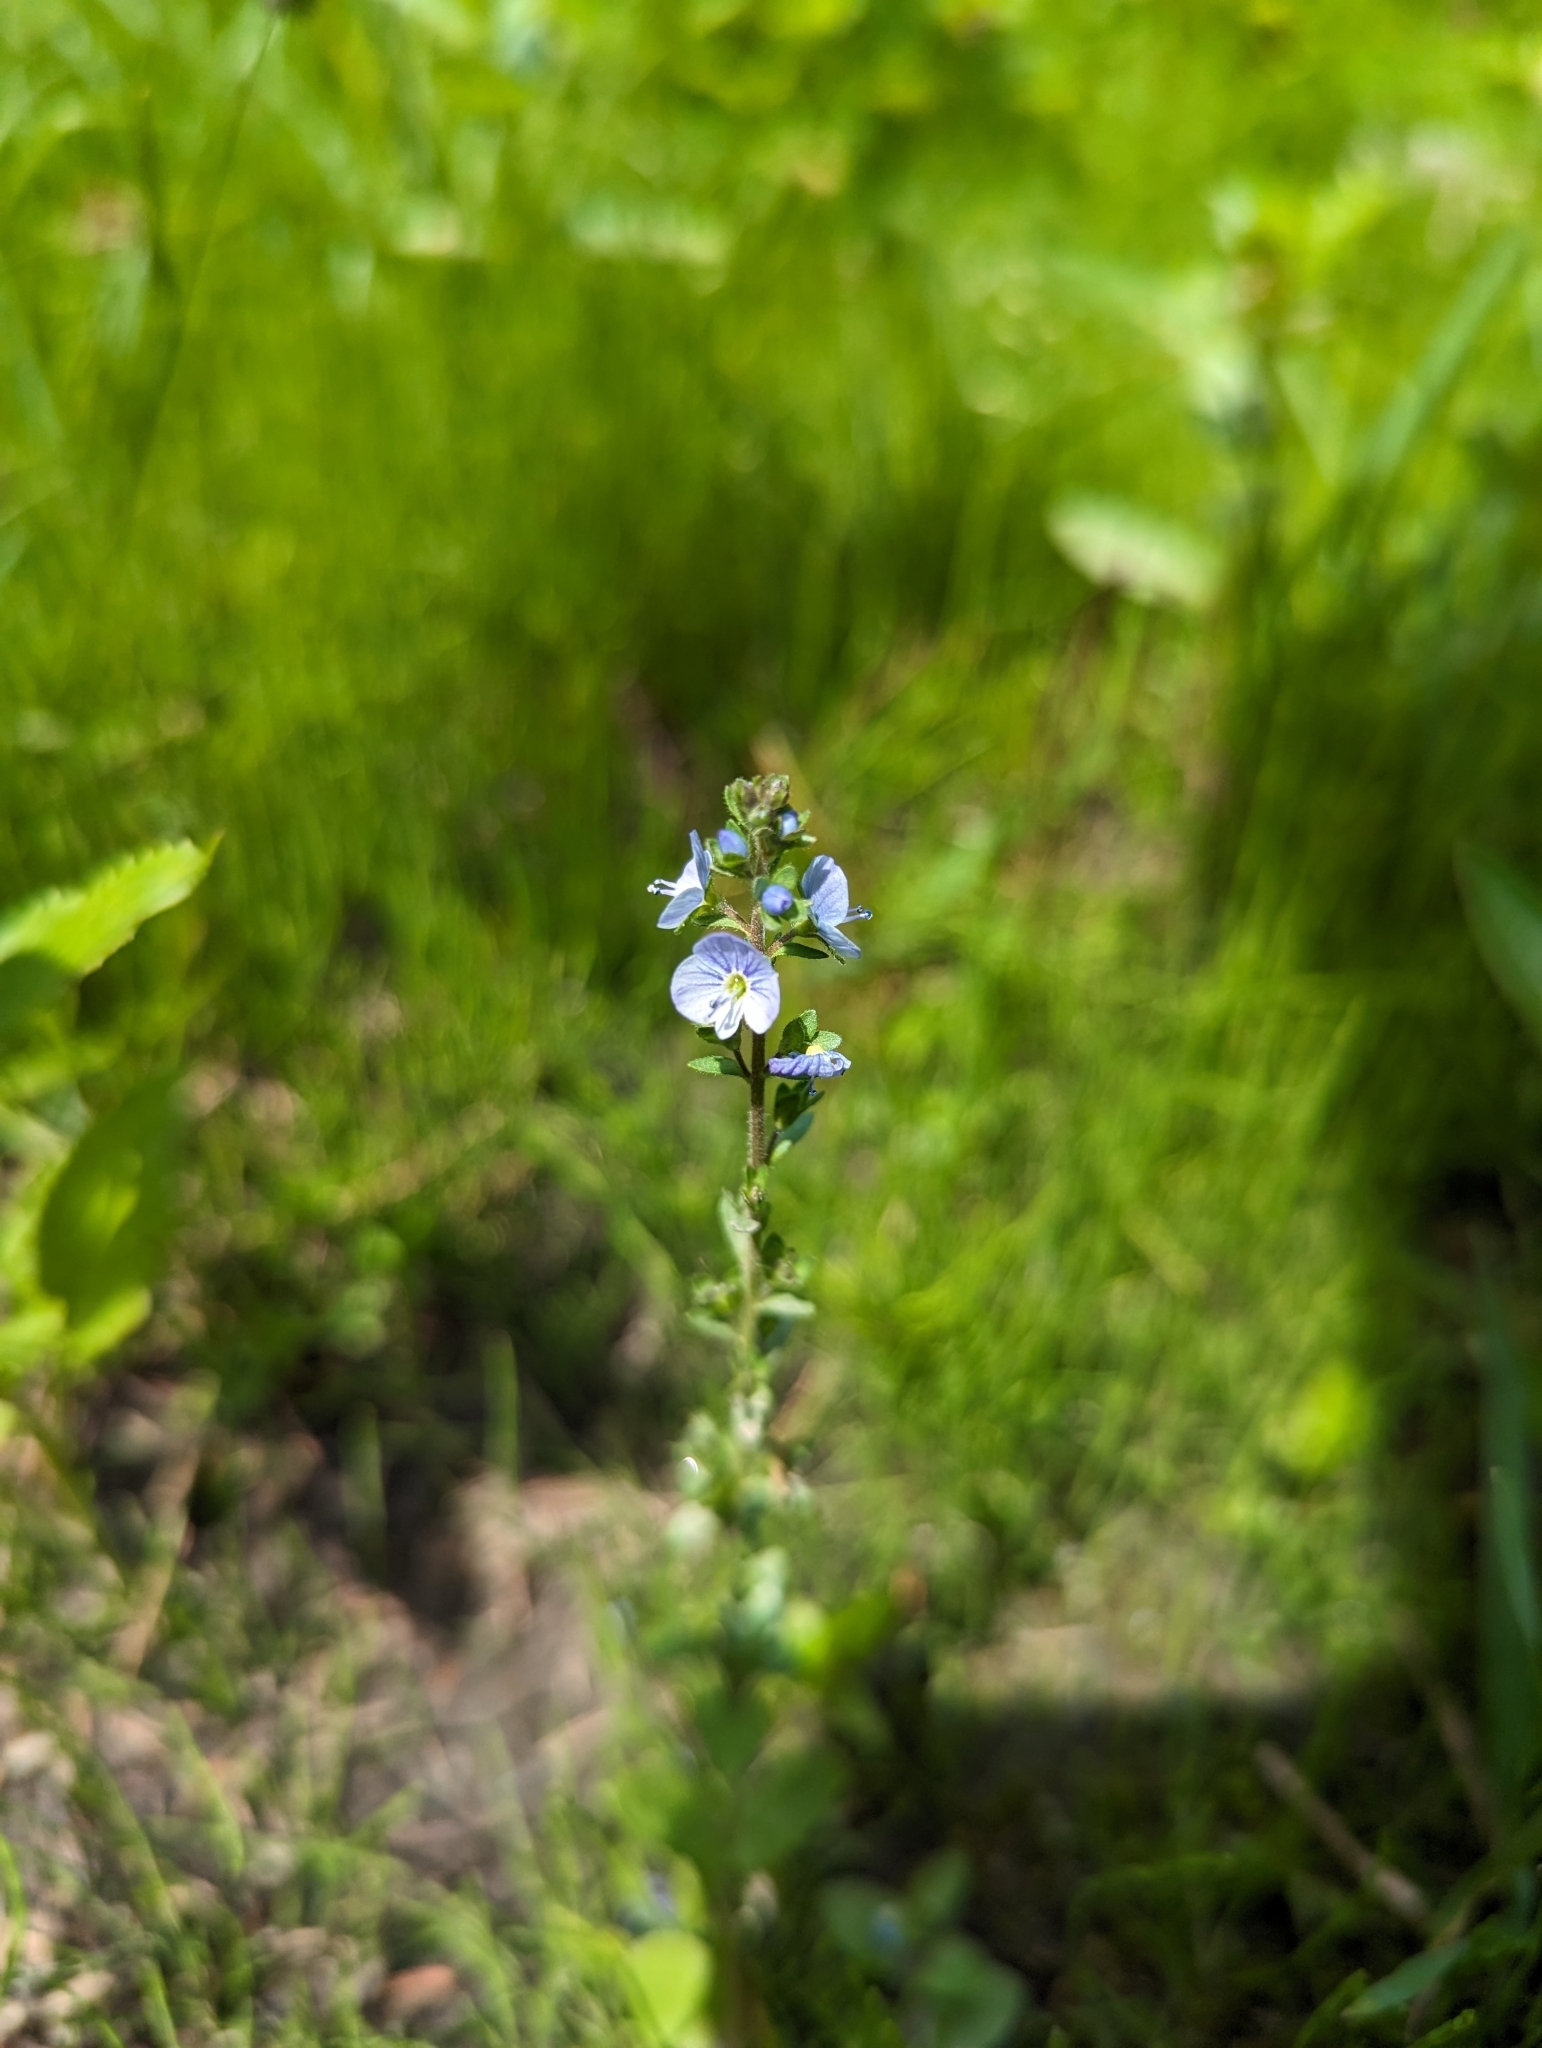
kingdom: Plantae
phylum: Tracheophyta
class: Magnoliopsida
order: Lamiales
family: Plantaginaceae
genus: Veronica
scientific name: Veronica serpyllifolia
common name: Thyme-leaved speedwell
